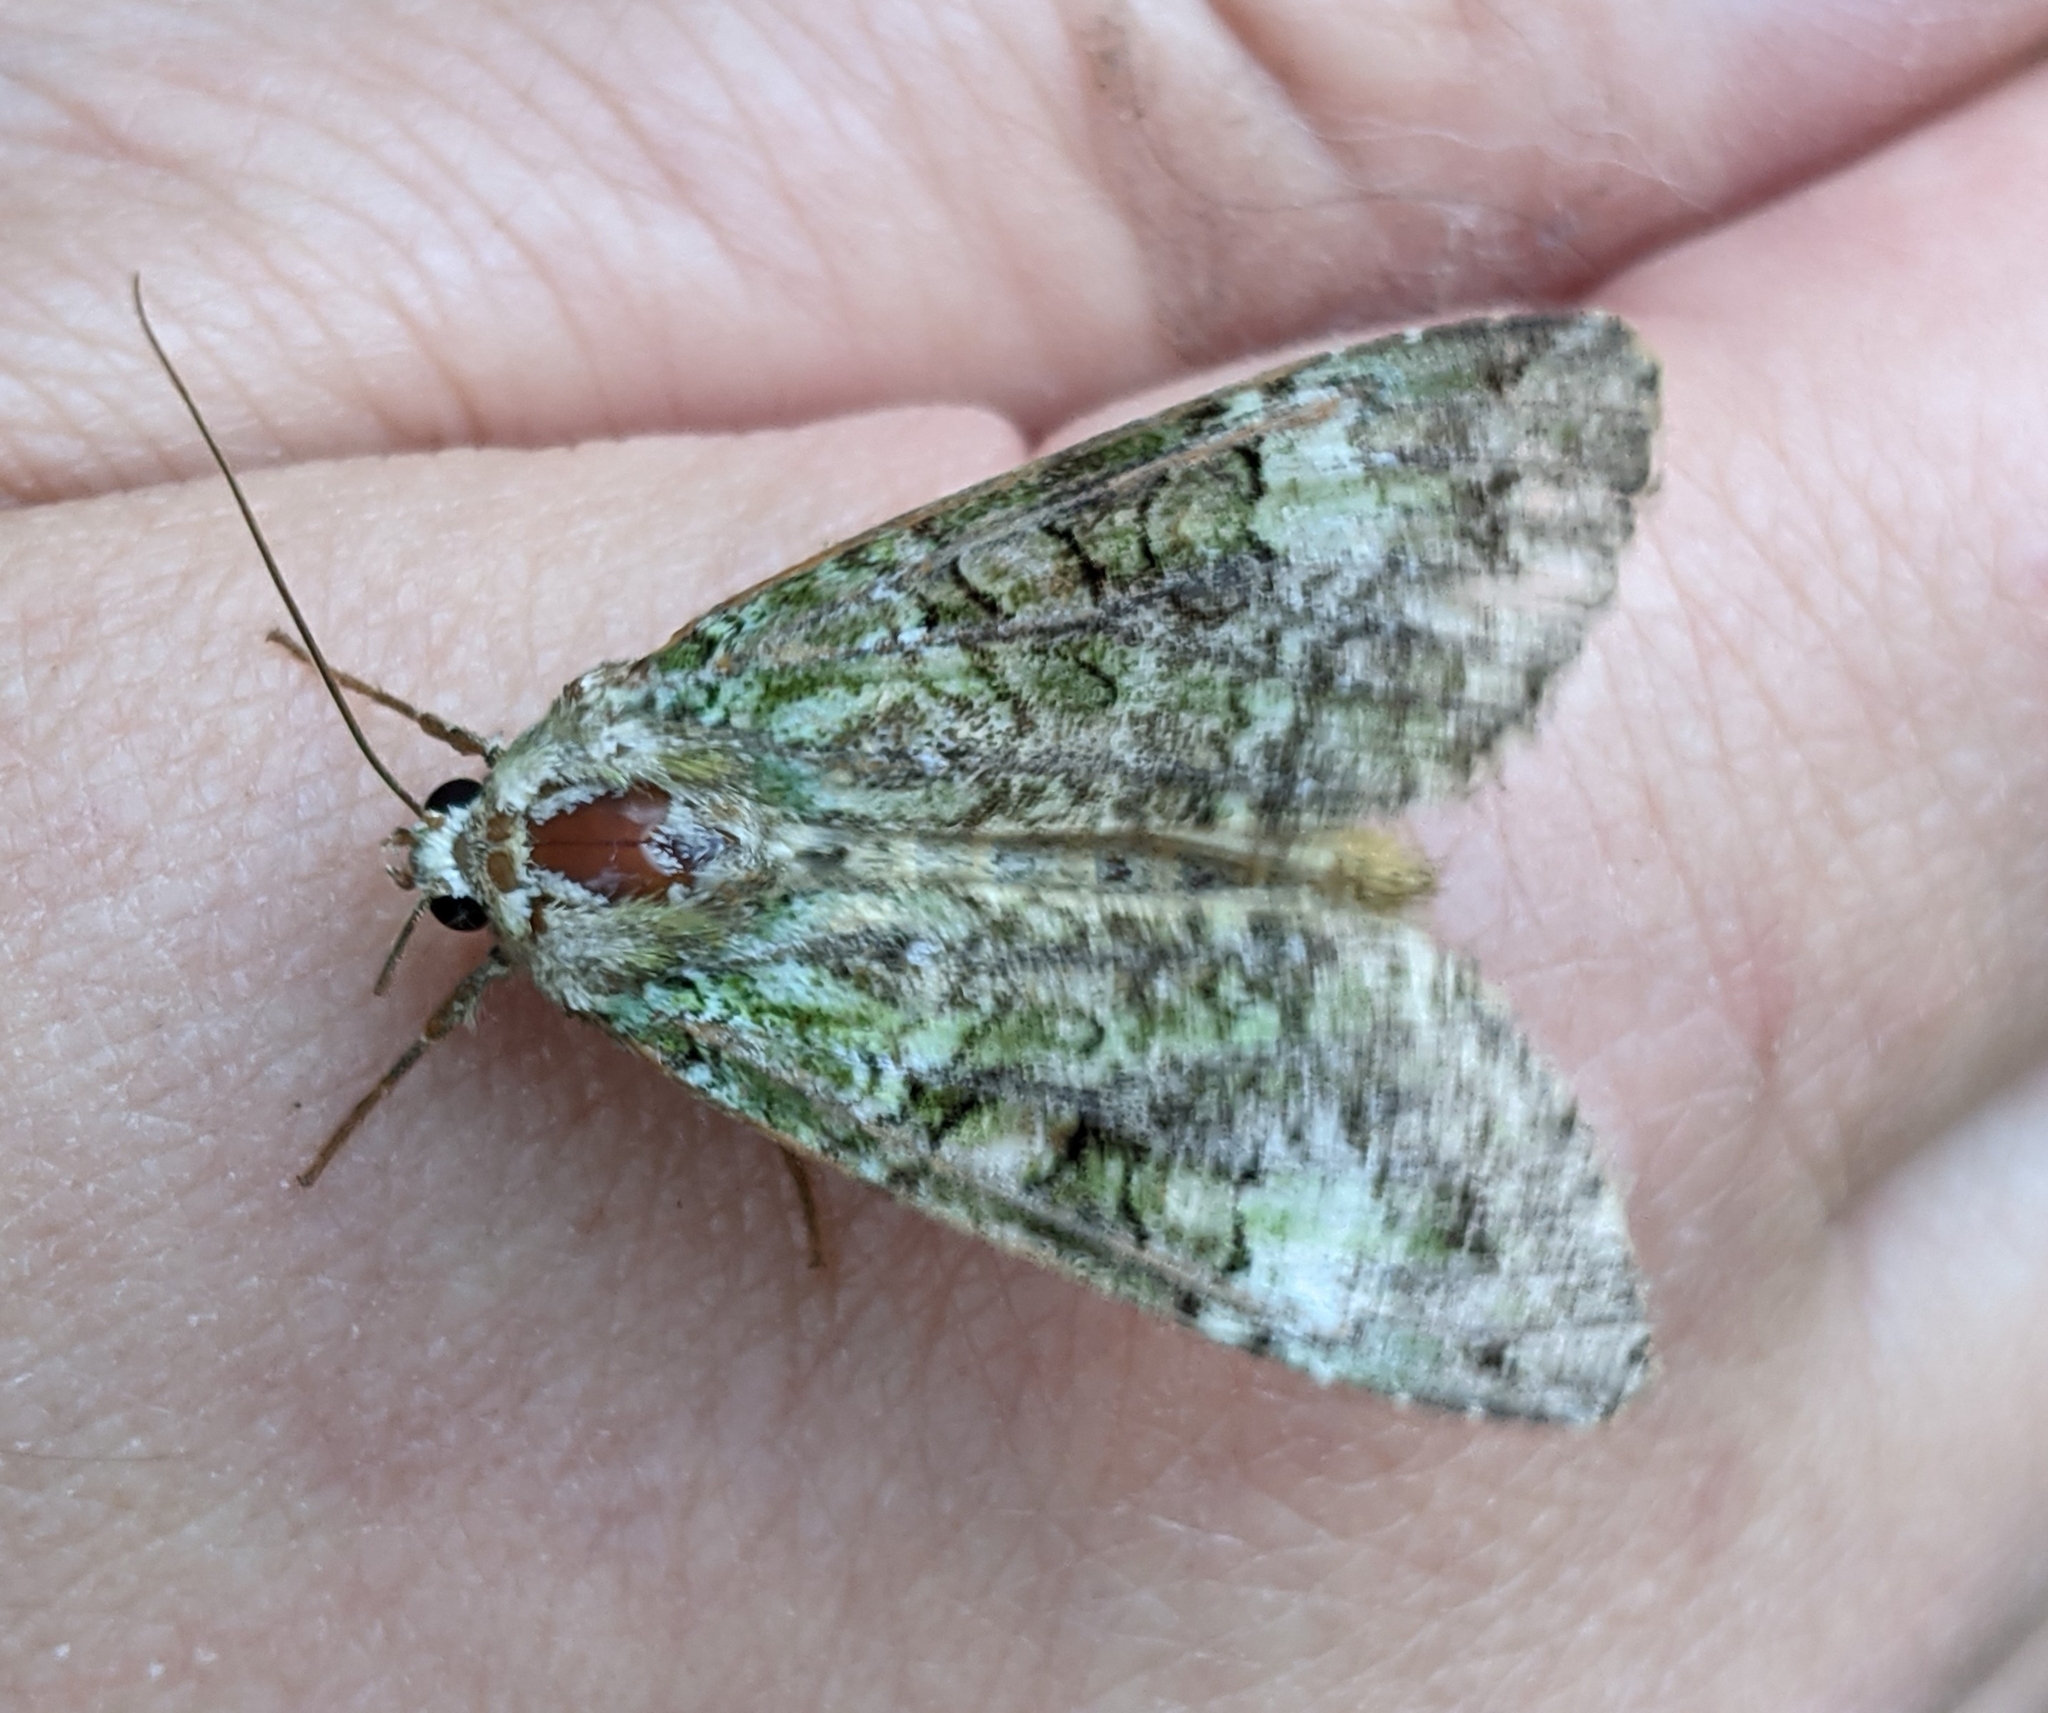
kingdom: Animalia
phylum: Arthropoda
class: Insecta
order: Lepidoptera
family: Noctuidae
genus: Anaplectoides
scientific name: Anaplectoides prasina
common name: Green arches
